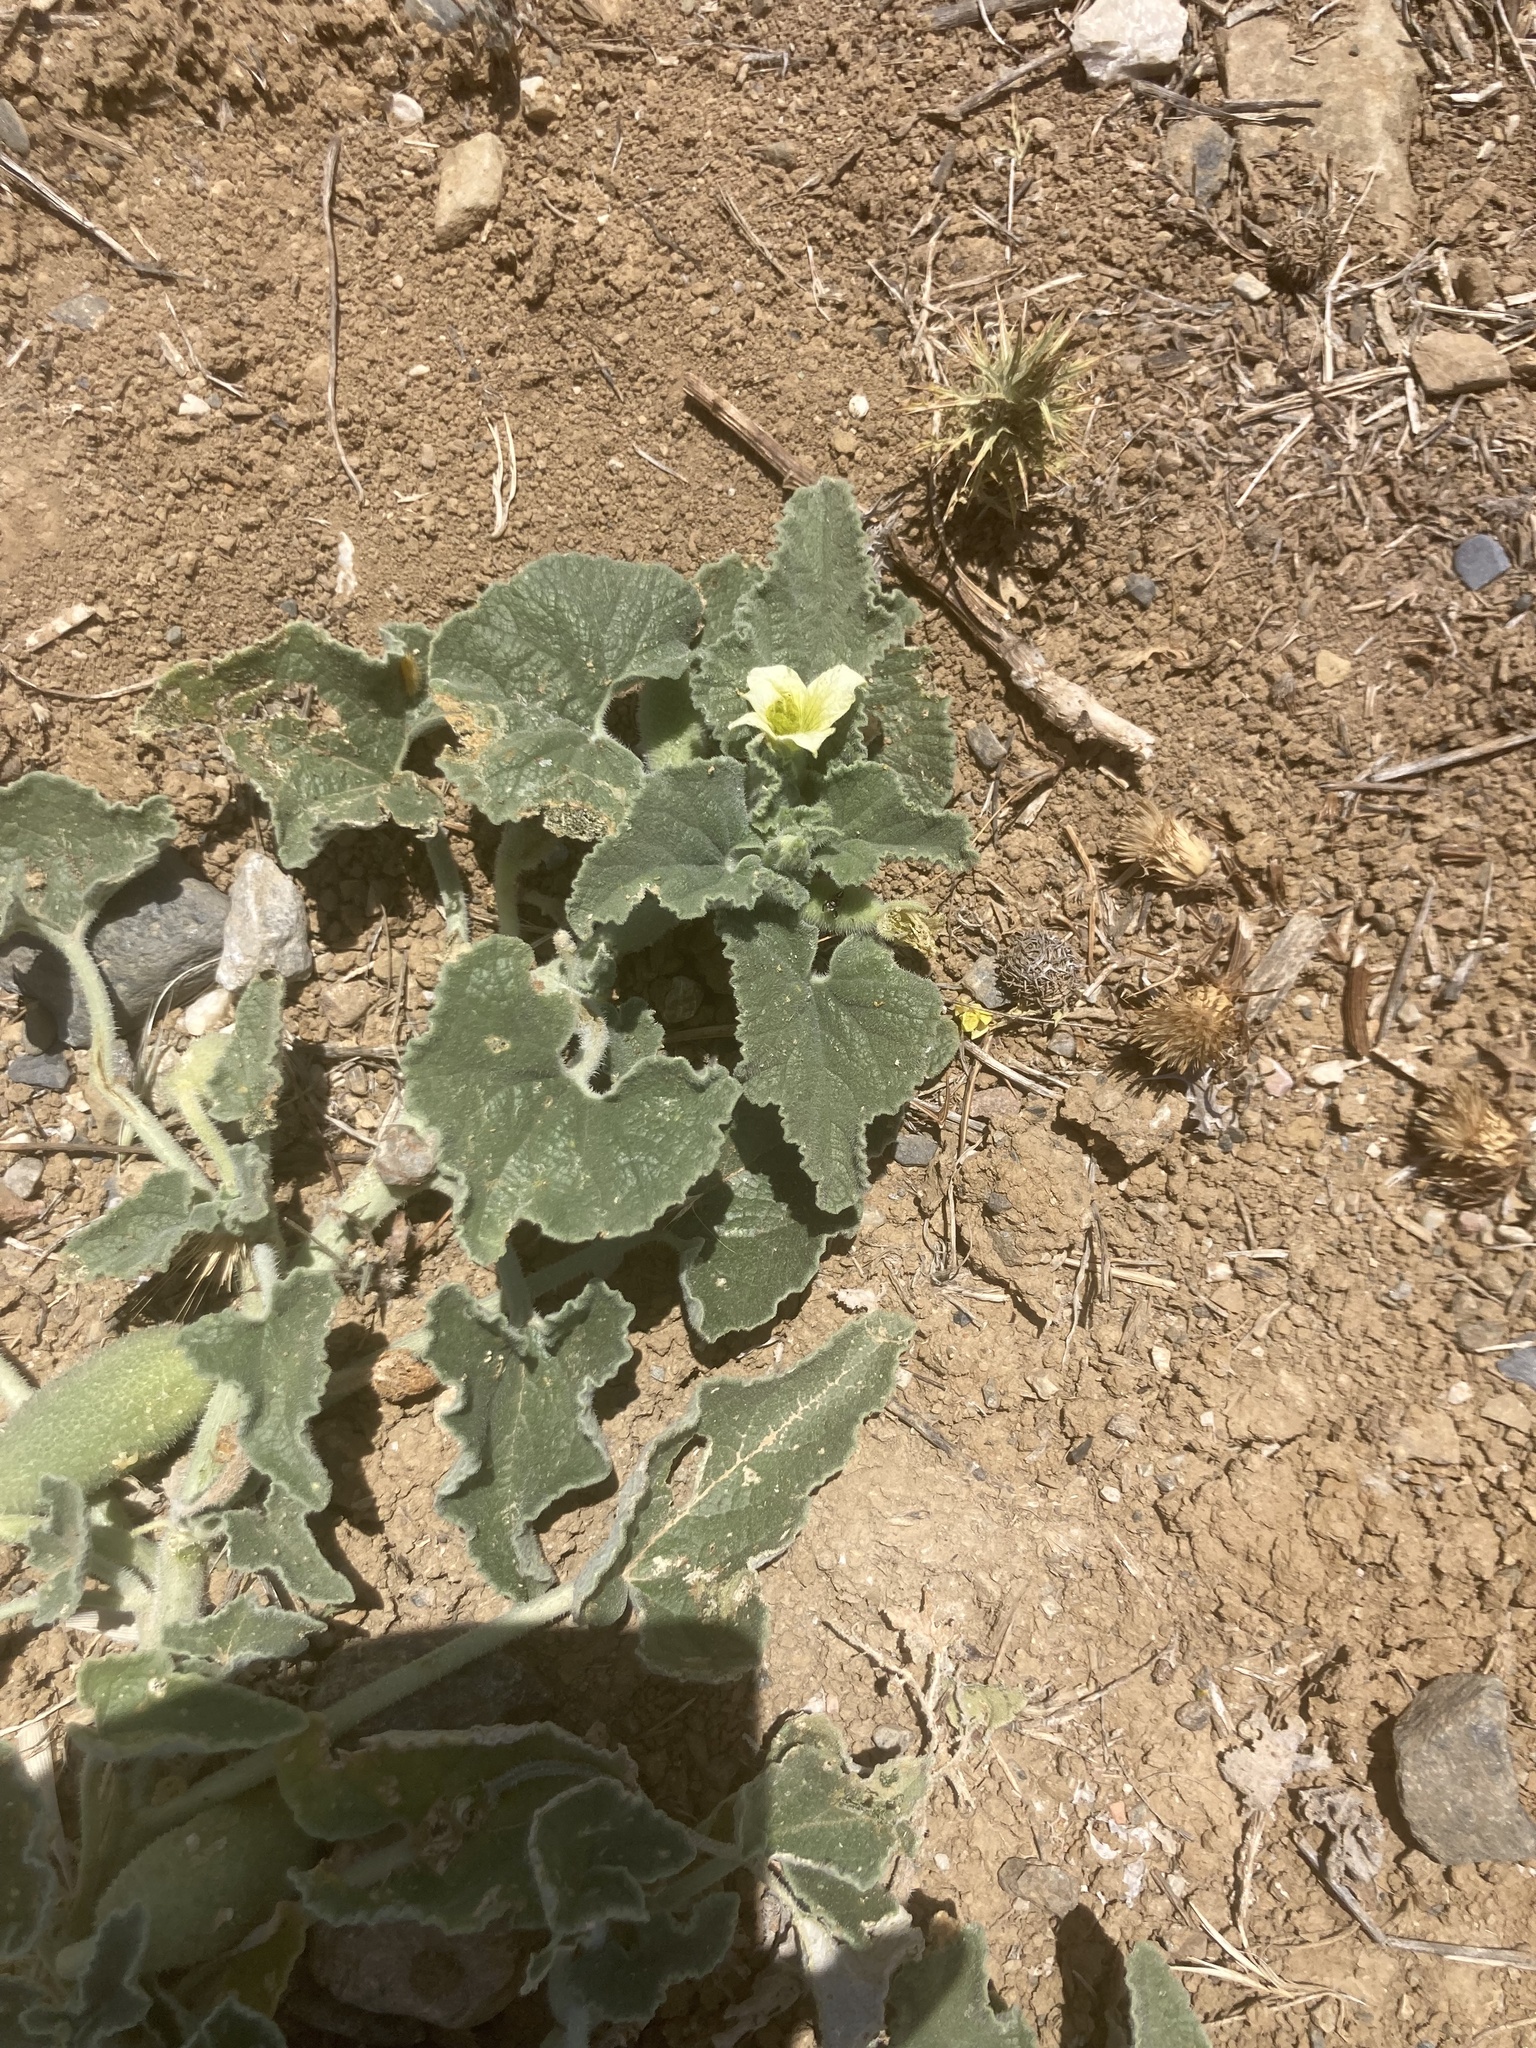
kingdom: Plantae
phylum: Tracheophyta
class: Magnoliopsida
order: Cucurbitales
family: Cucurbitaceae
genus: Ecballium
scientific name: Ecballium elaterium
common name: Squirting cucumber
